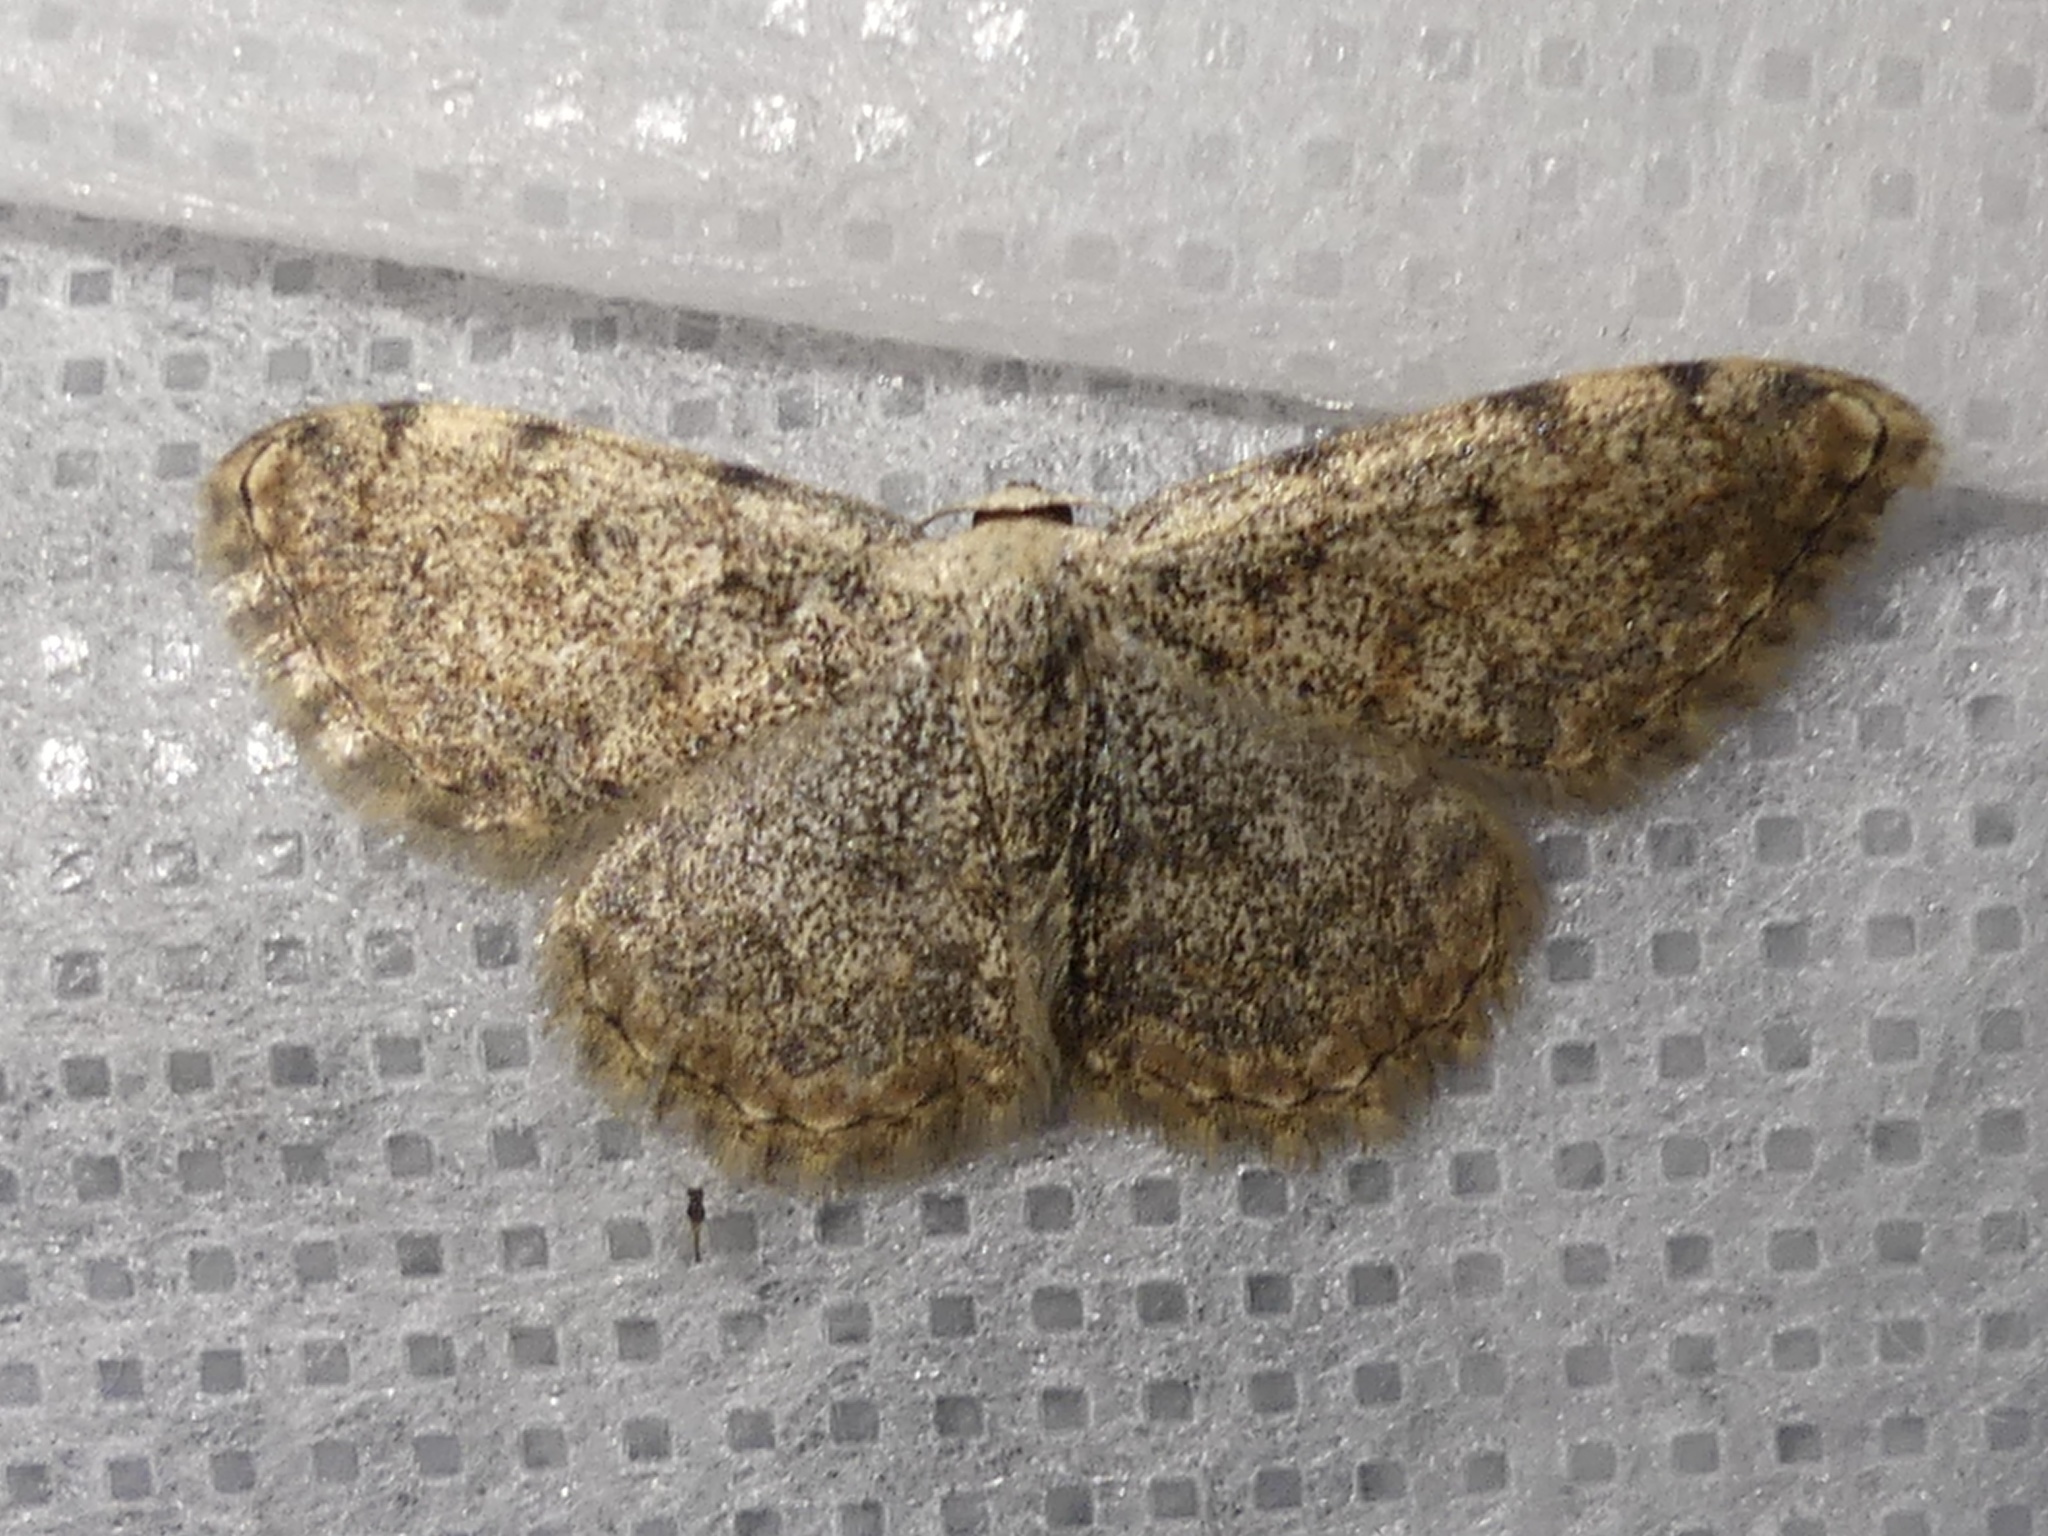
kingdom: Animalia
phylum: Arthropoda
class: Insecta
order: Lepidoptera
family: Geometridae
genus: Scopula
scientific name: Scopula submutata
